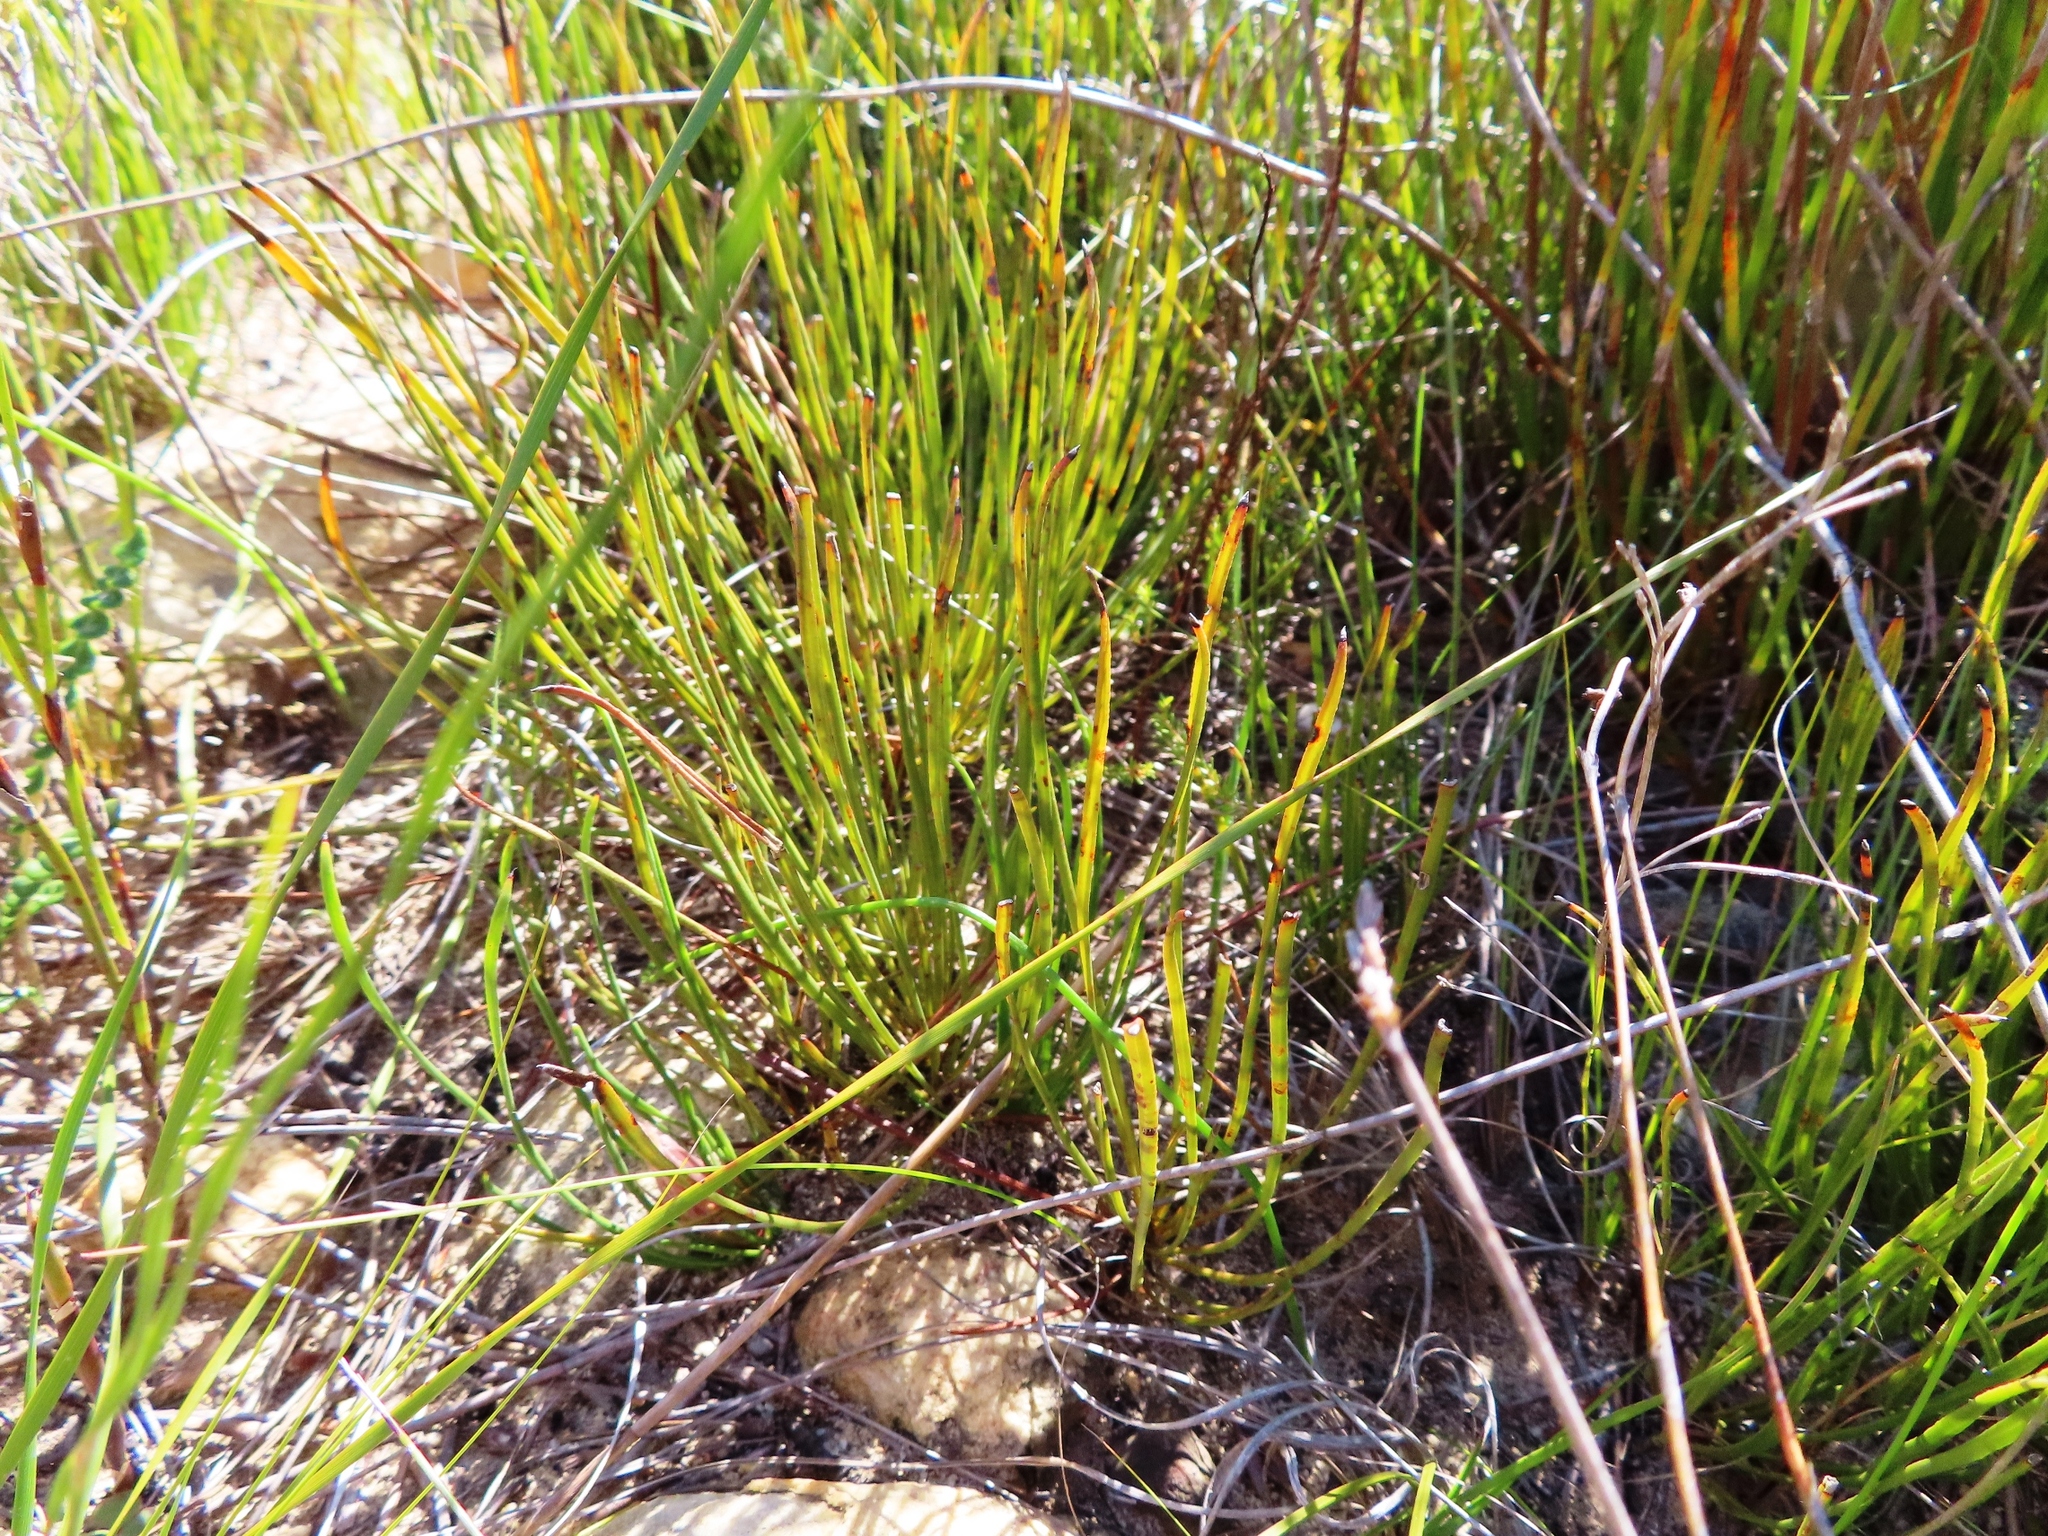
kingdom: Plantae
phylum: Tracheophyta
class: Magnoliopsida
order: Proteales
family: Proteaceae
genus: Protea
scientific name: Protea scorzonerifolia
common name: Channel-leaf sugarbush
